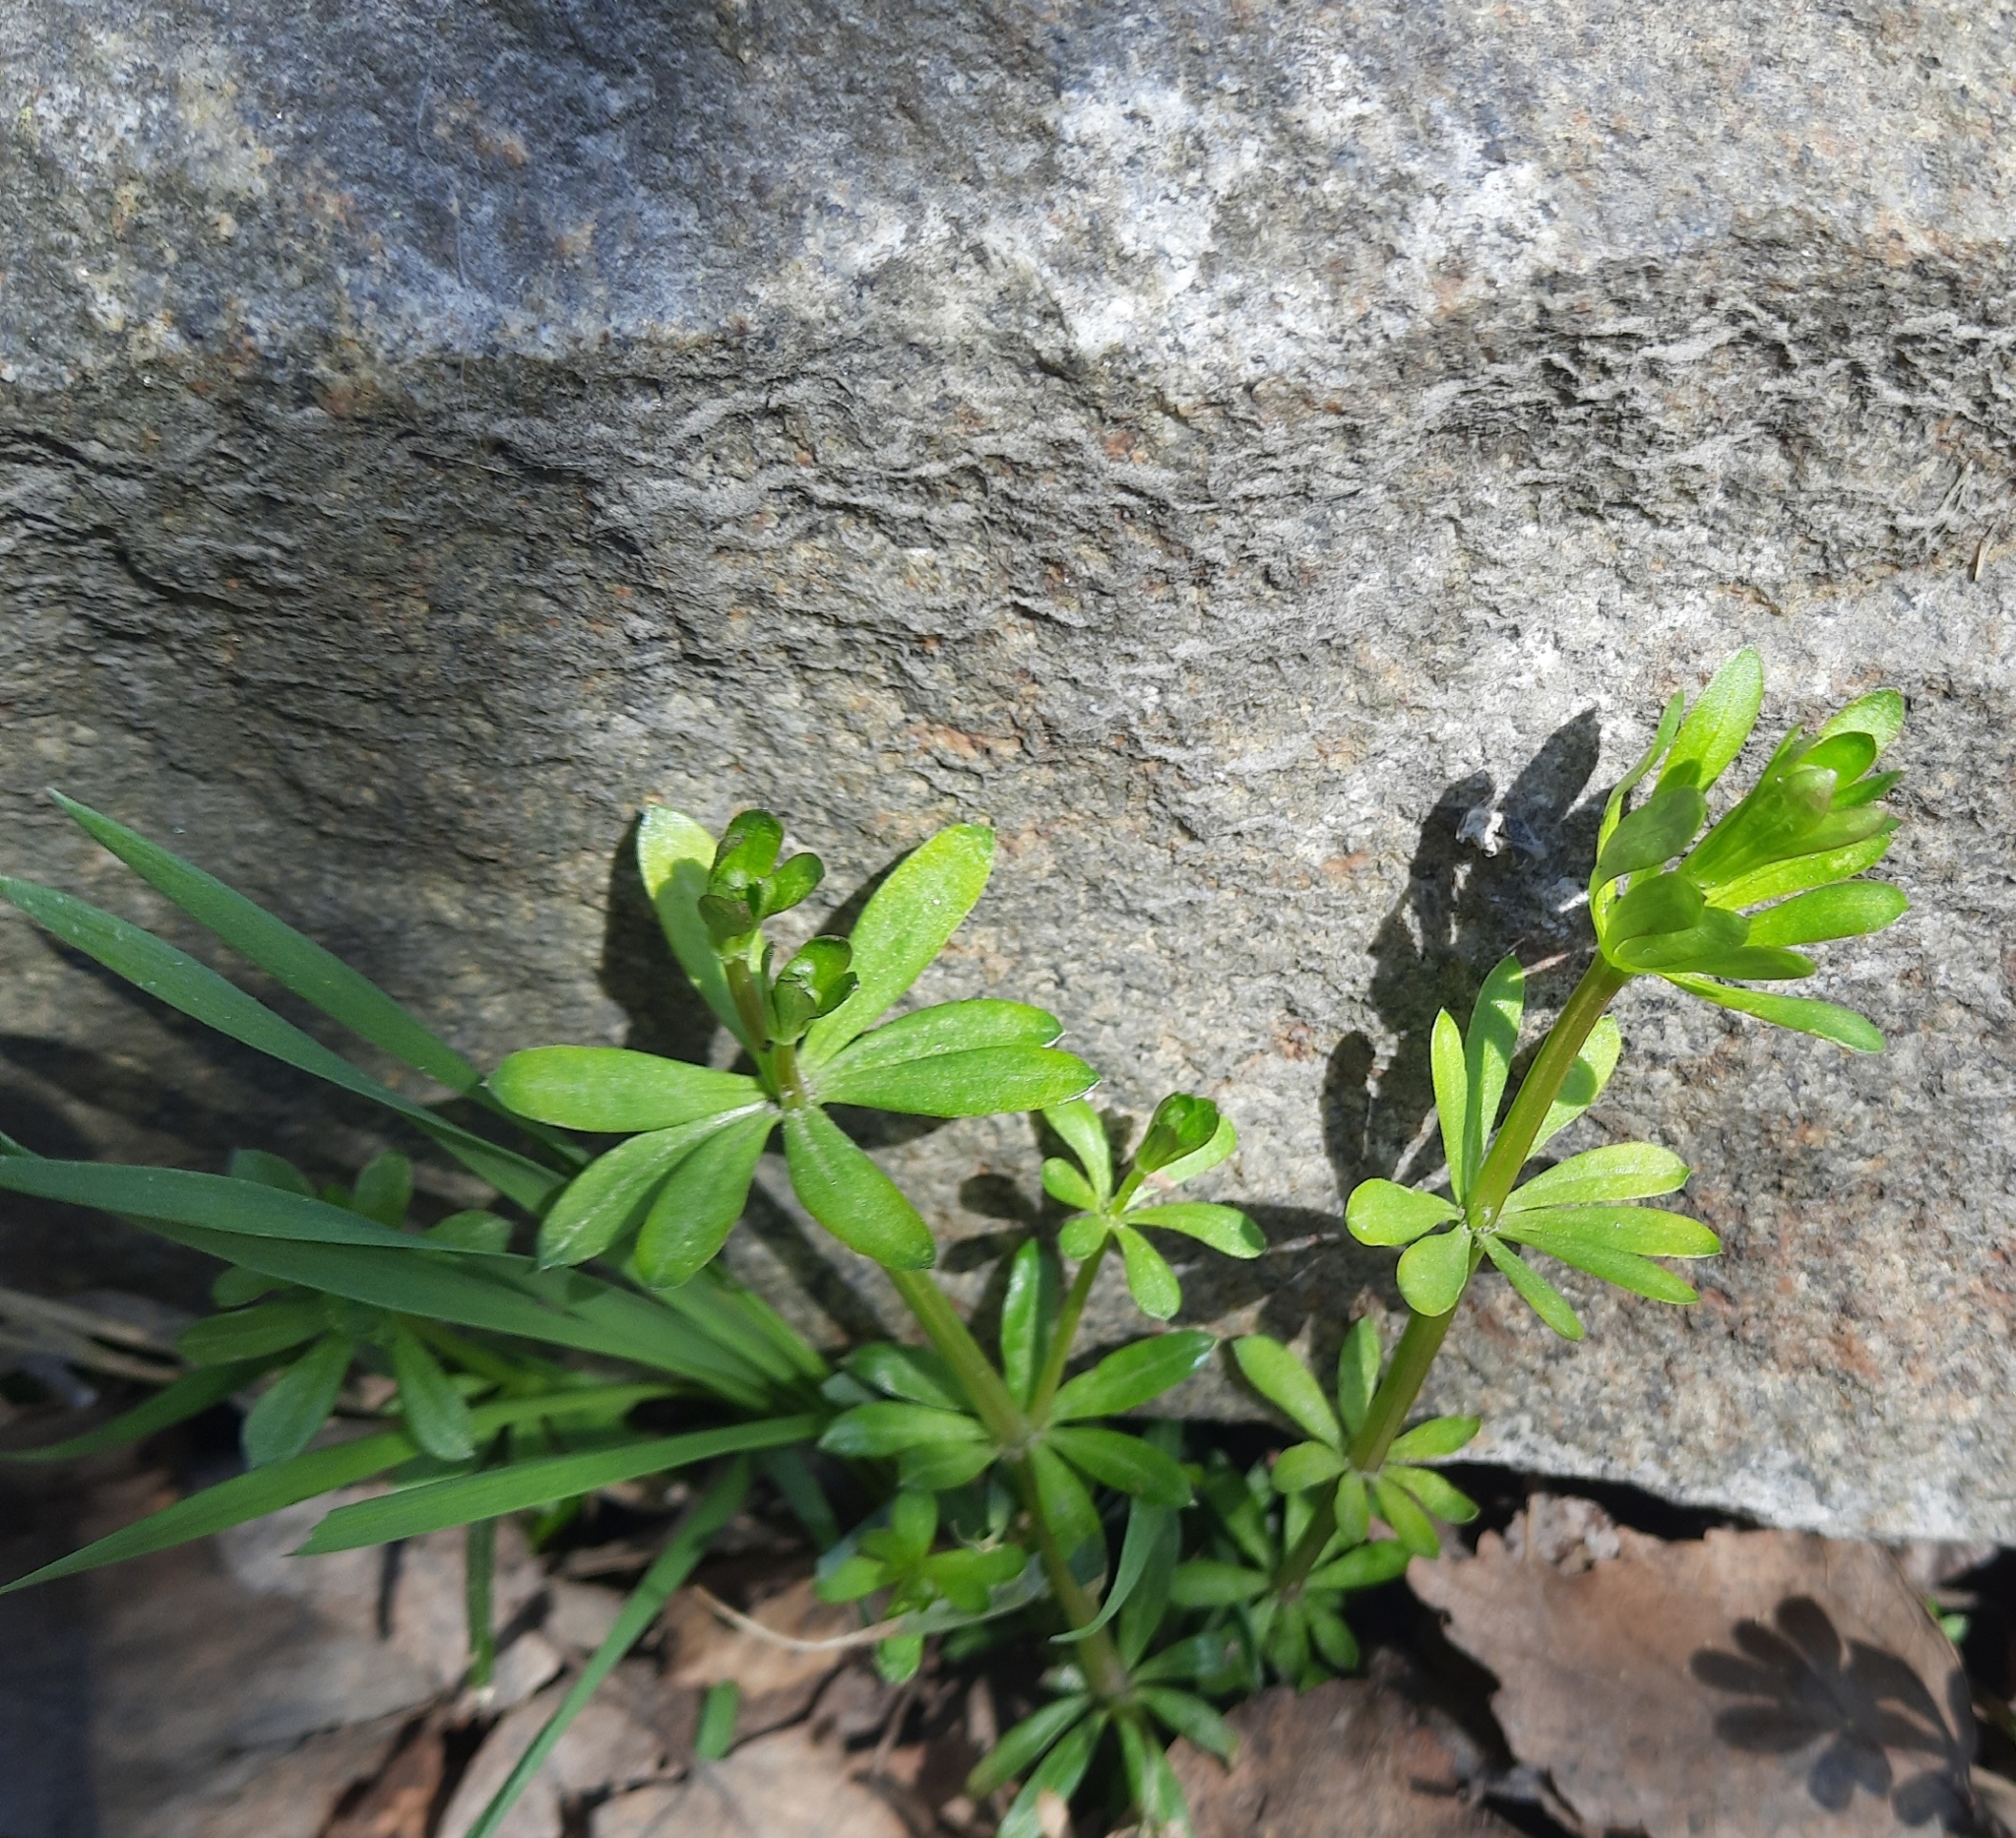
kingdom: Plantae
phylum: Tracheophyta
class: Magnoliopsida
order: Gentianales
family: Rubiaceae
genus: Galium
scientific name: Galium mollugo
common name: Hedge bedstraw
